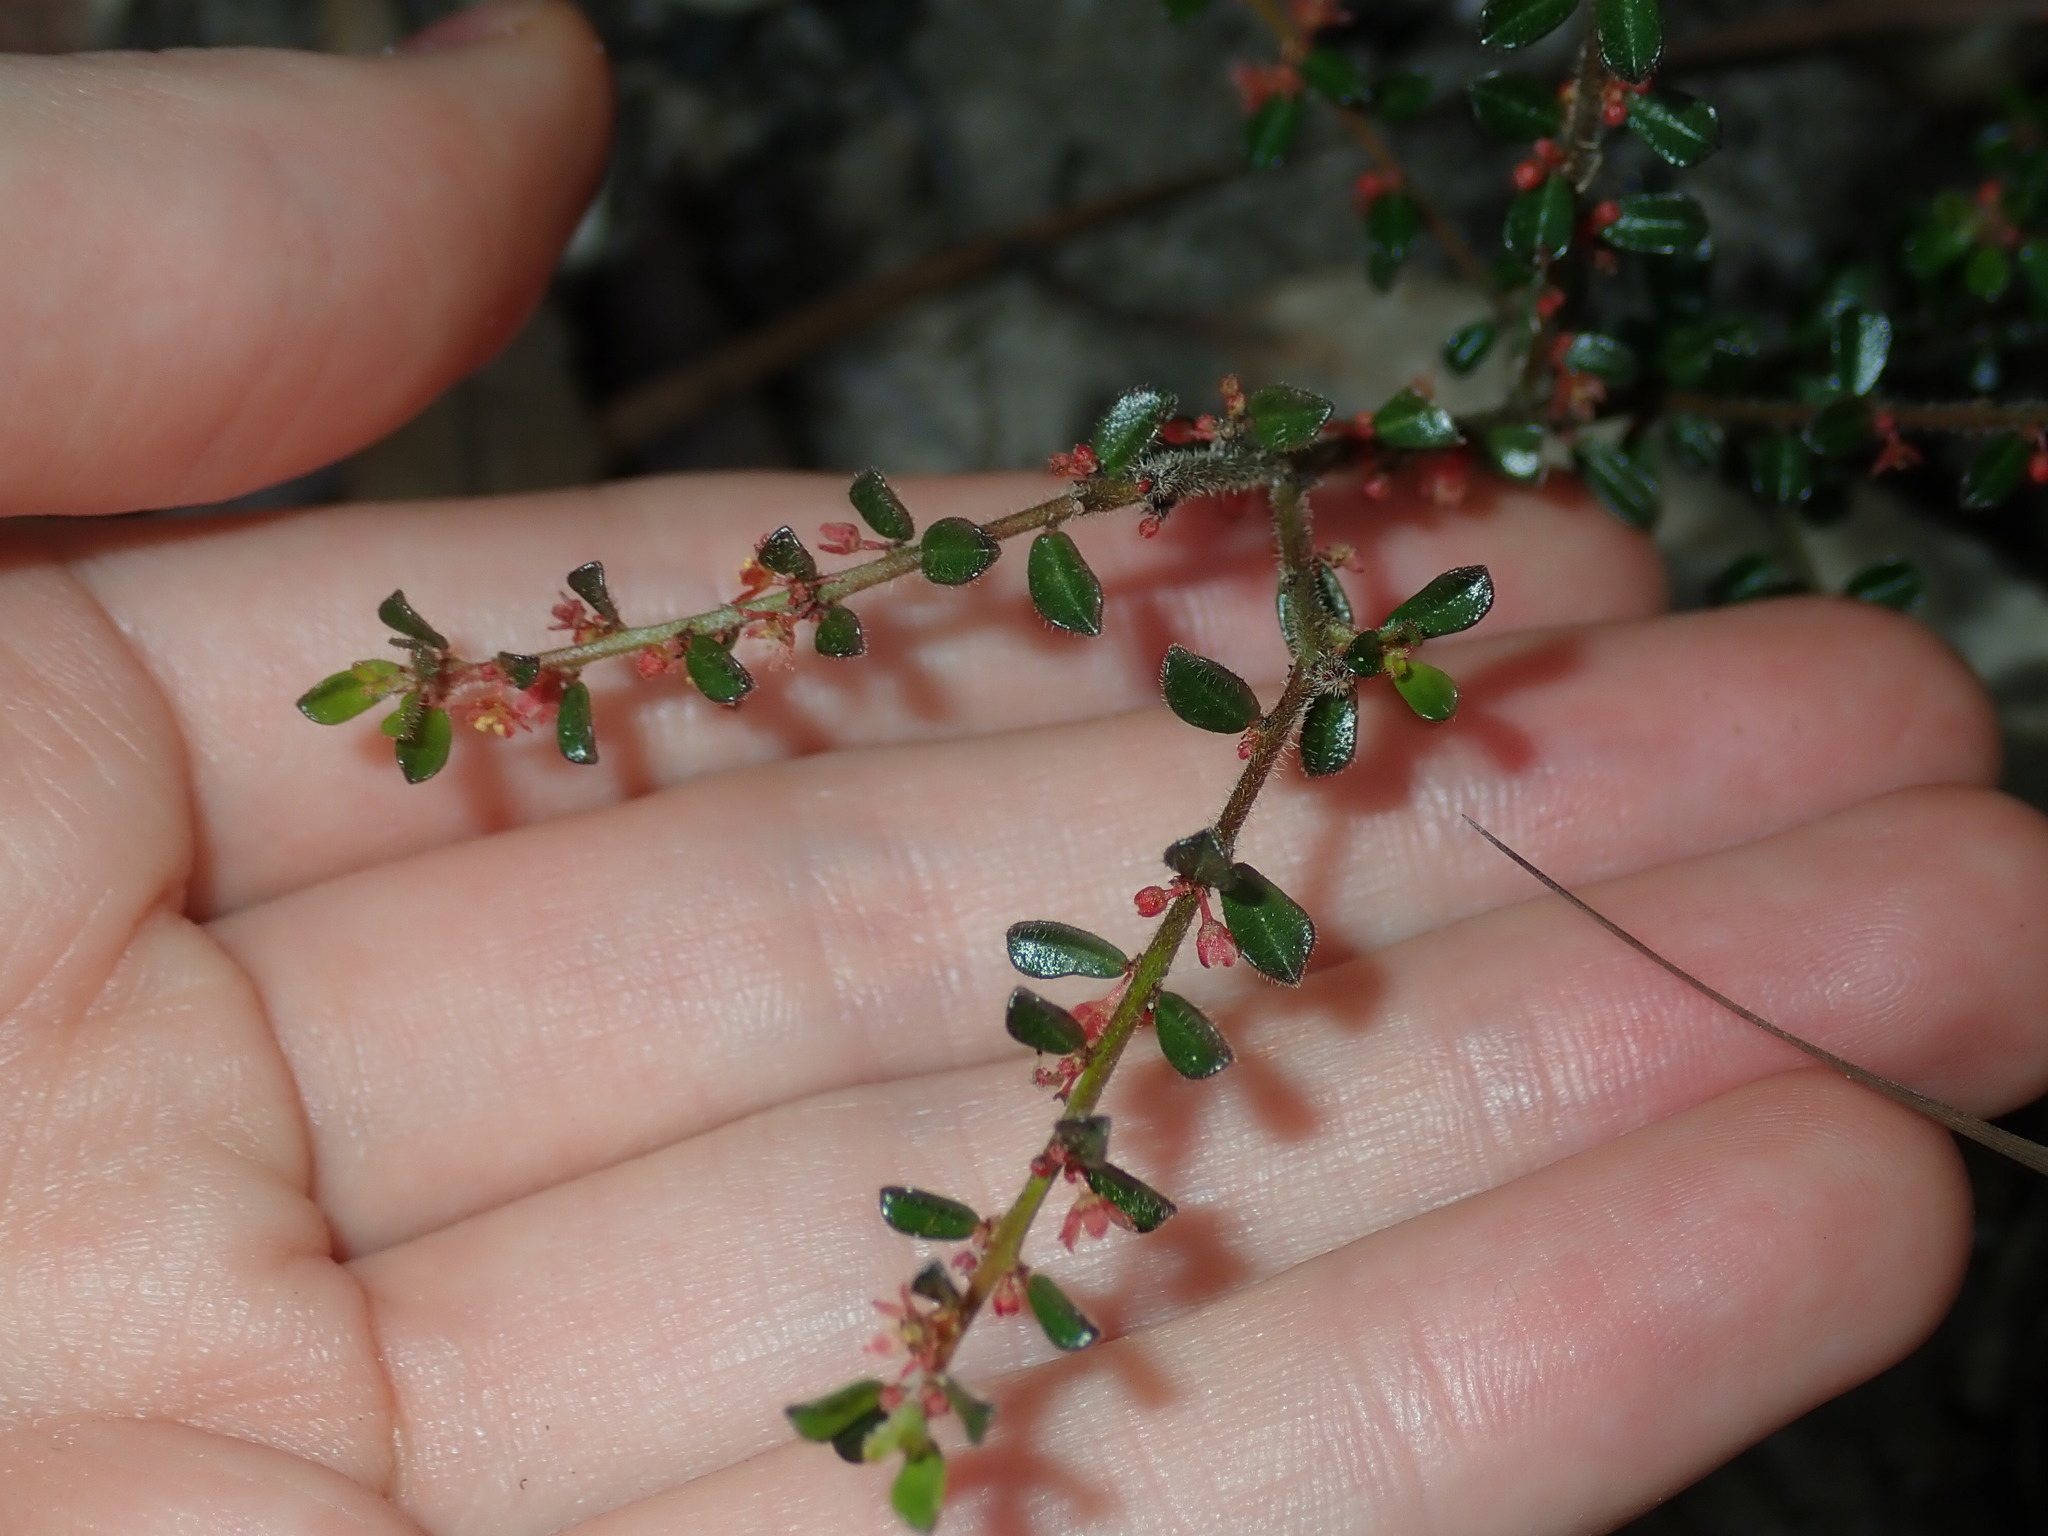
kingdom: Plantae
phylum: Tracheophyta
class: Magnoliopsida
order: Malpighiales
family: Phyllanthaceae
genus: Phyllanthus
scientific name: Phyllanthus hirtellus
